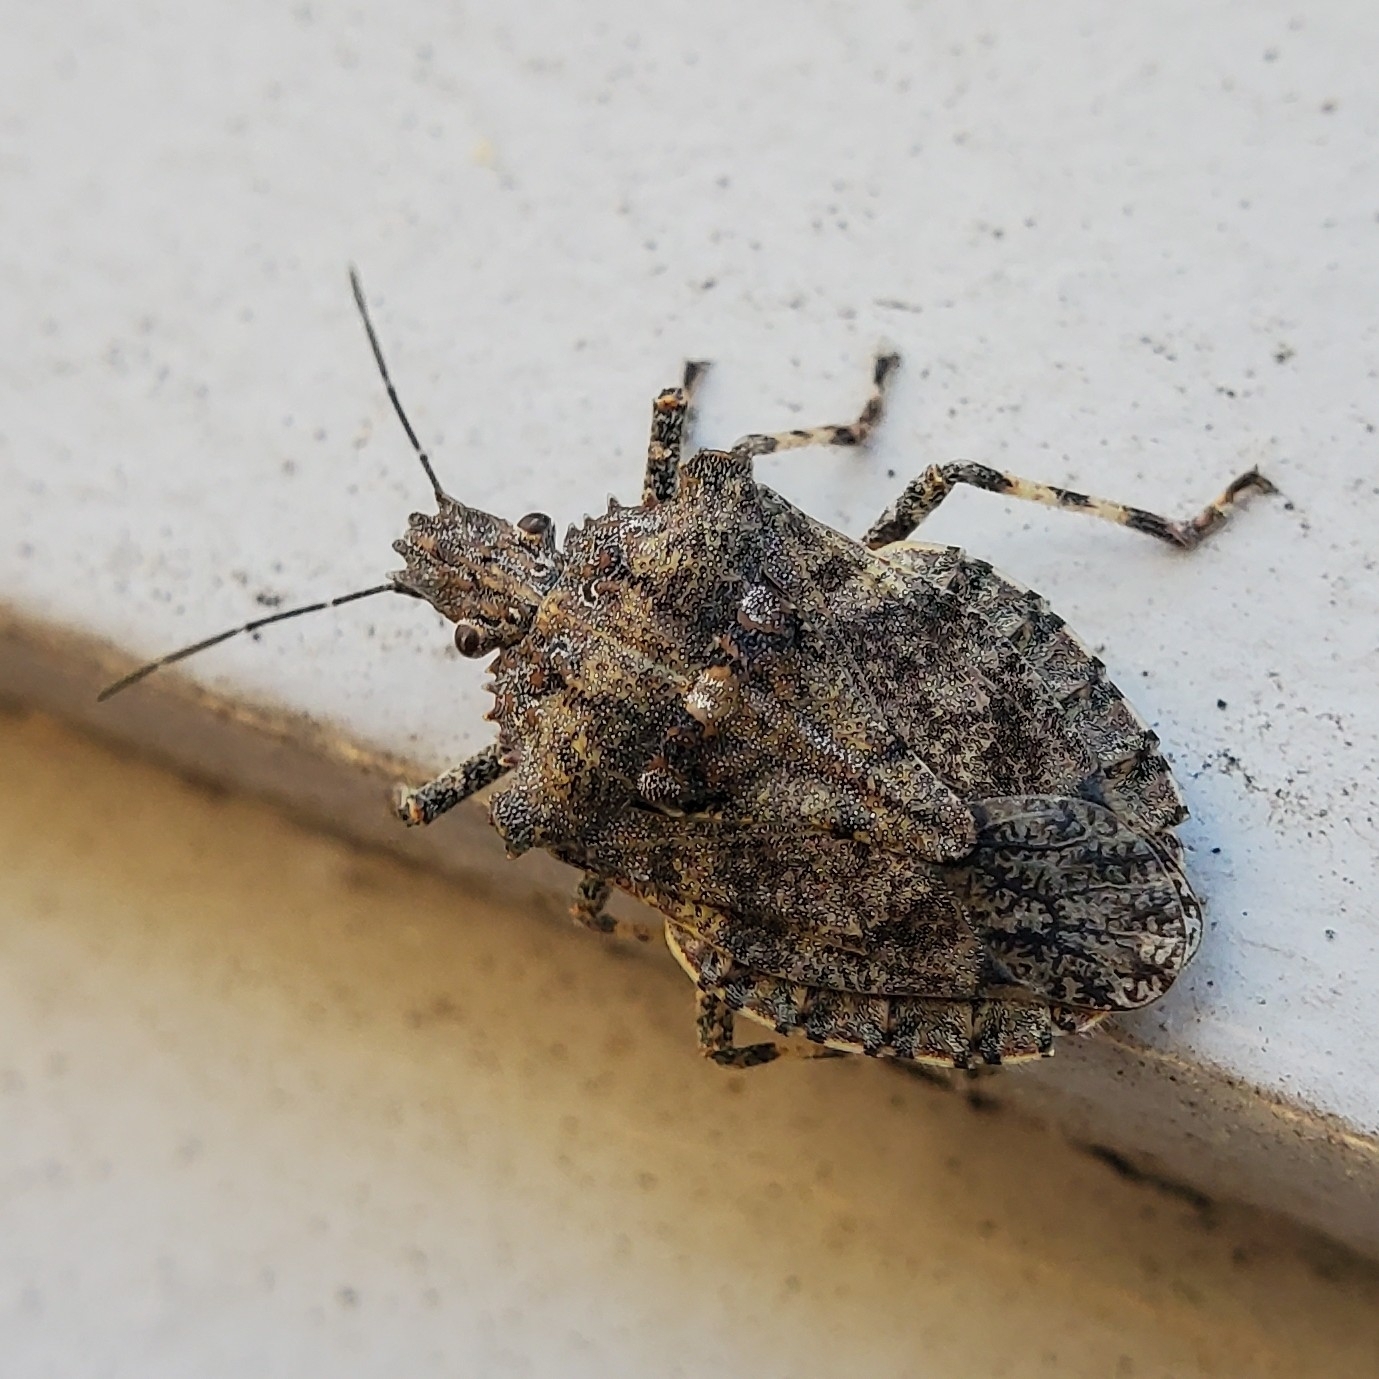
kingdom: Animalia
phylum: Arthropoda
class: Insecta
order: Hemiptera
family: Pentatomidae
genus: Brochymena
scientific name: Brochymena arborea
